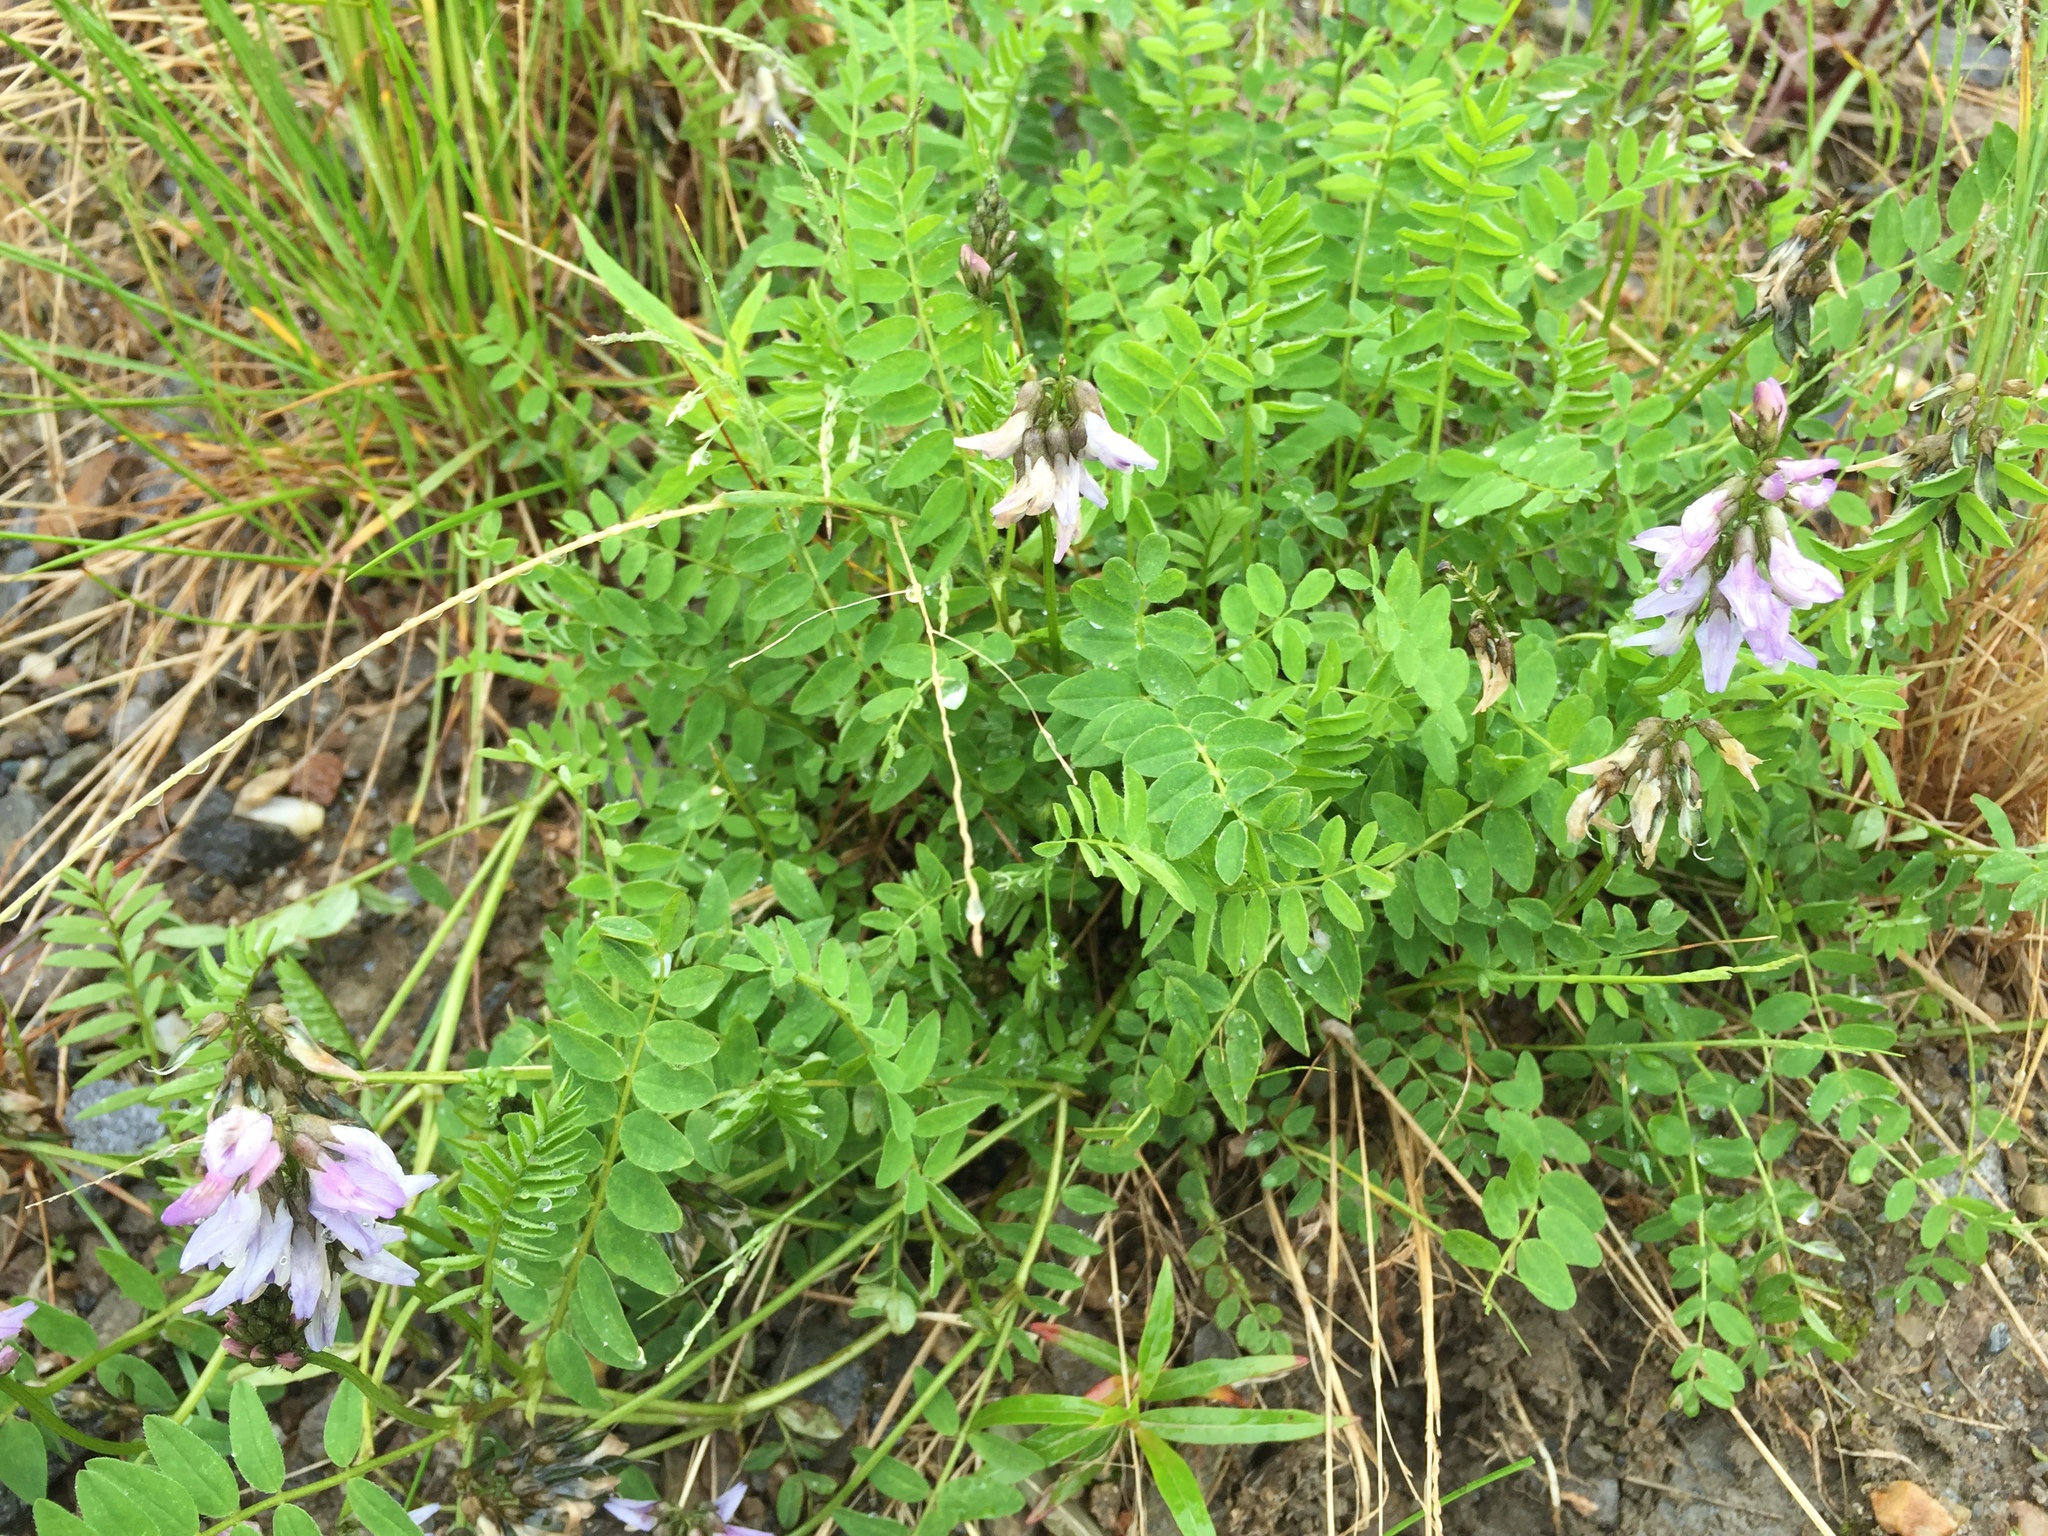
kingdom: Plantae
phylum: Tracheophyta
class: Magnoliopsida
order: Fabales
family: Fabaceae
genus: Astragalus
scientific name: Astragalus alpinus
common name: Alpine milk-vetch
